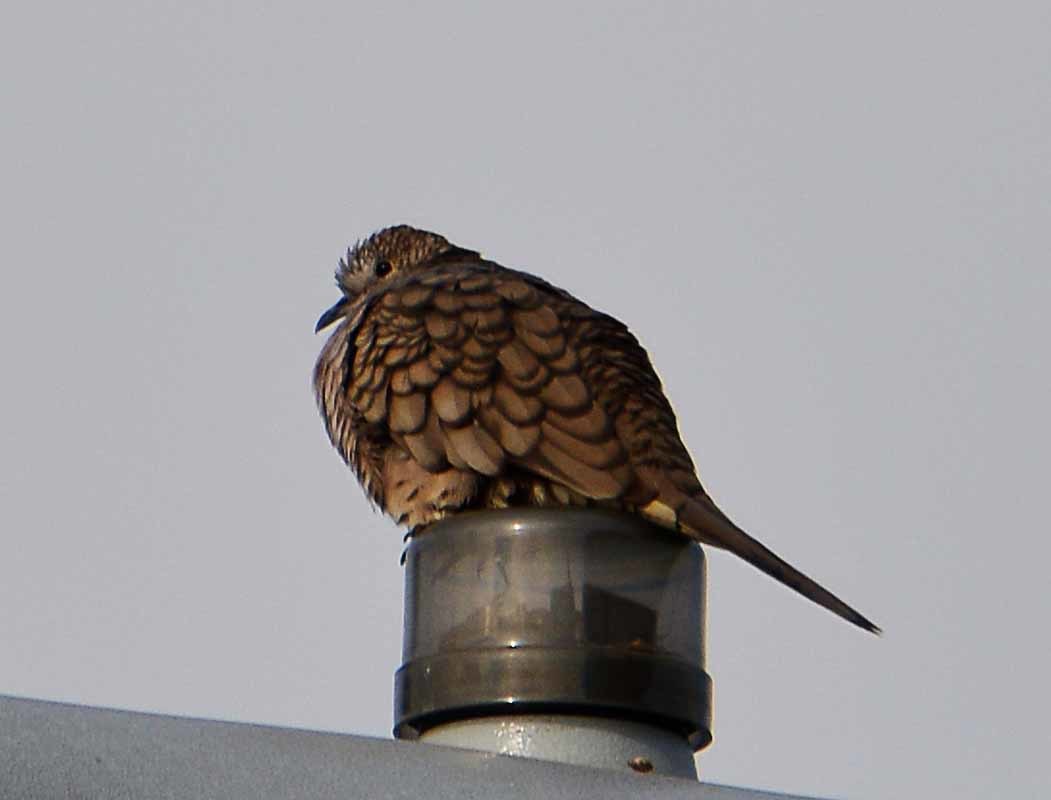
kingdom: Animalia
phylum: Chordata
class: Aves
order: Columbiformes
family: Columbidae
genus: Columbina
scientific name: Columbina inca
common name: Inca dove
